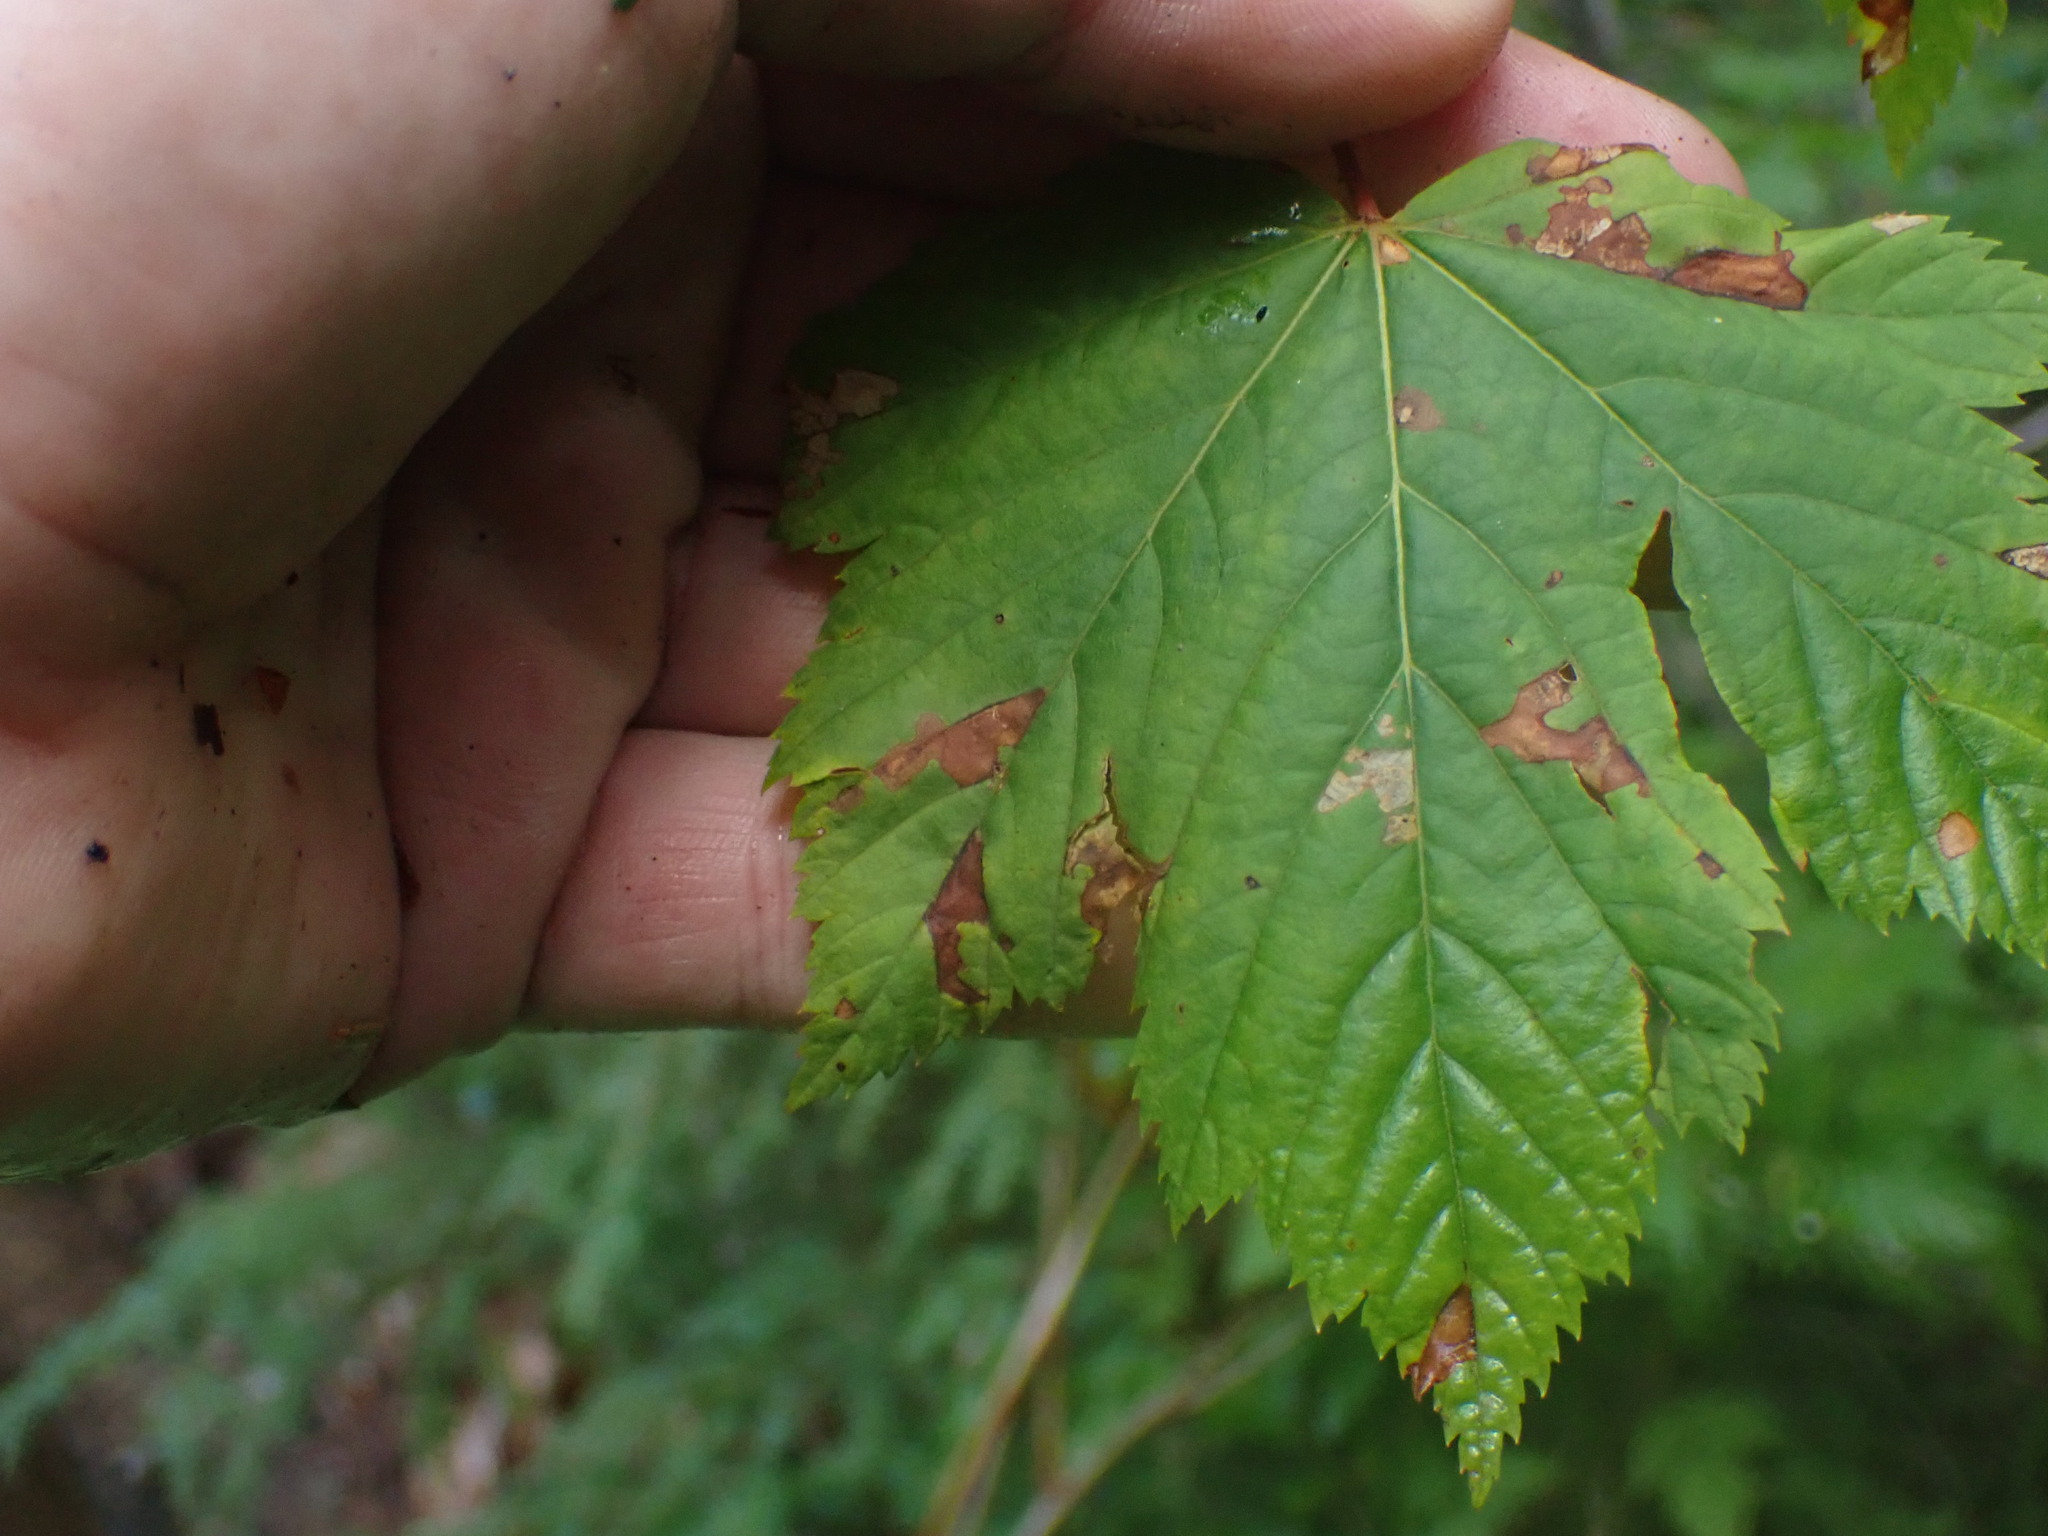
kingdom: Plantae
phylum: Tracheophyta
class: Magnoliopsida
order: Sapindales
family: Sapindaceae
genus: Acer
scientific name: Acer glabrum
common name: Rocky mountain maple
